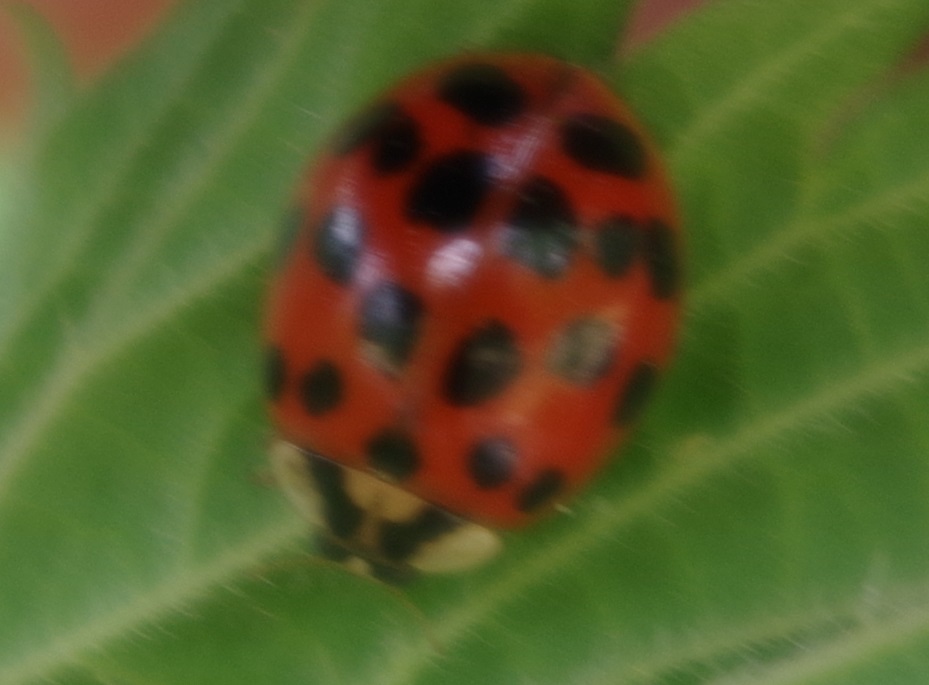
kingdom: Animalia
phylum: Arthropoda
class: Insecta
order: Coleoptera
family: Coccinellidae
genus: Harmonia
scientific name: Harmonia axyridis
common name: Harlequin ladybird
